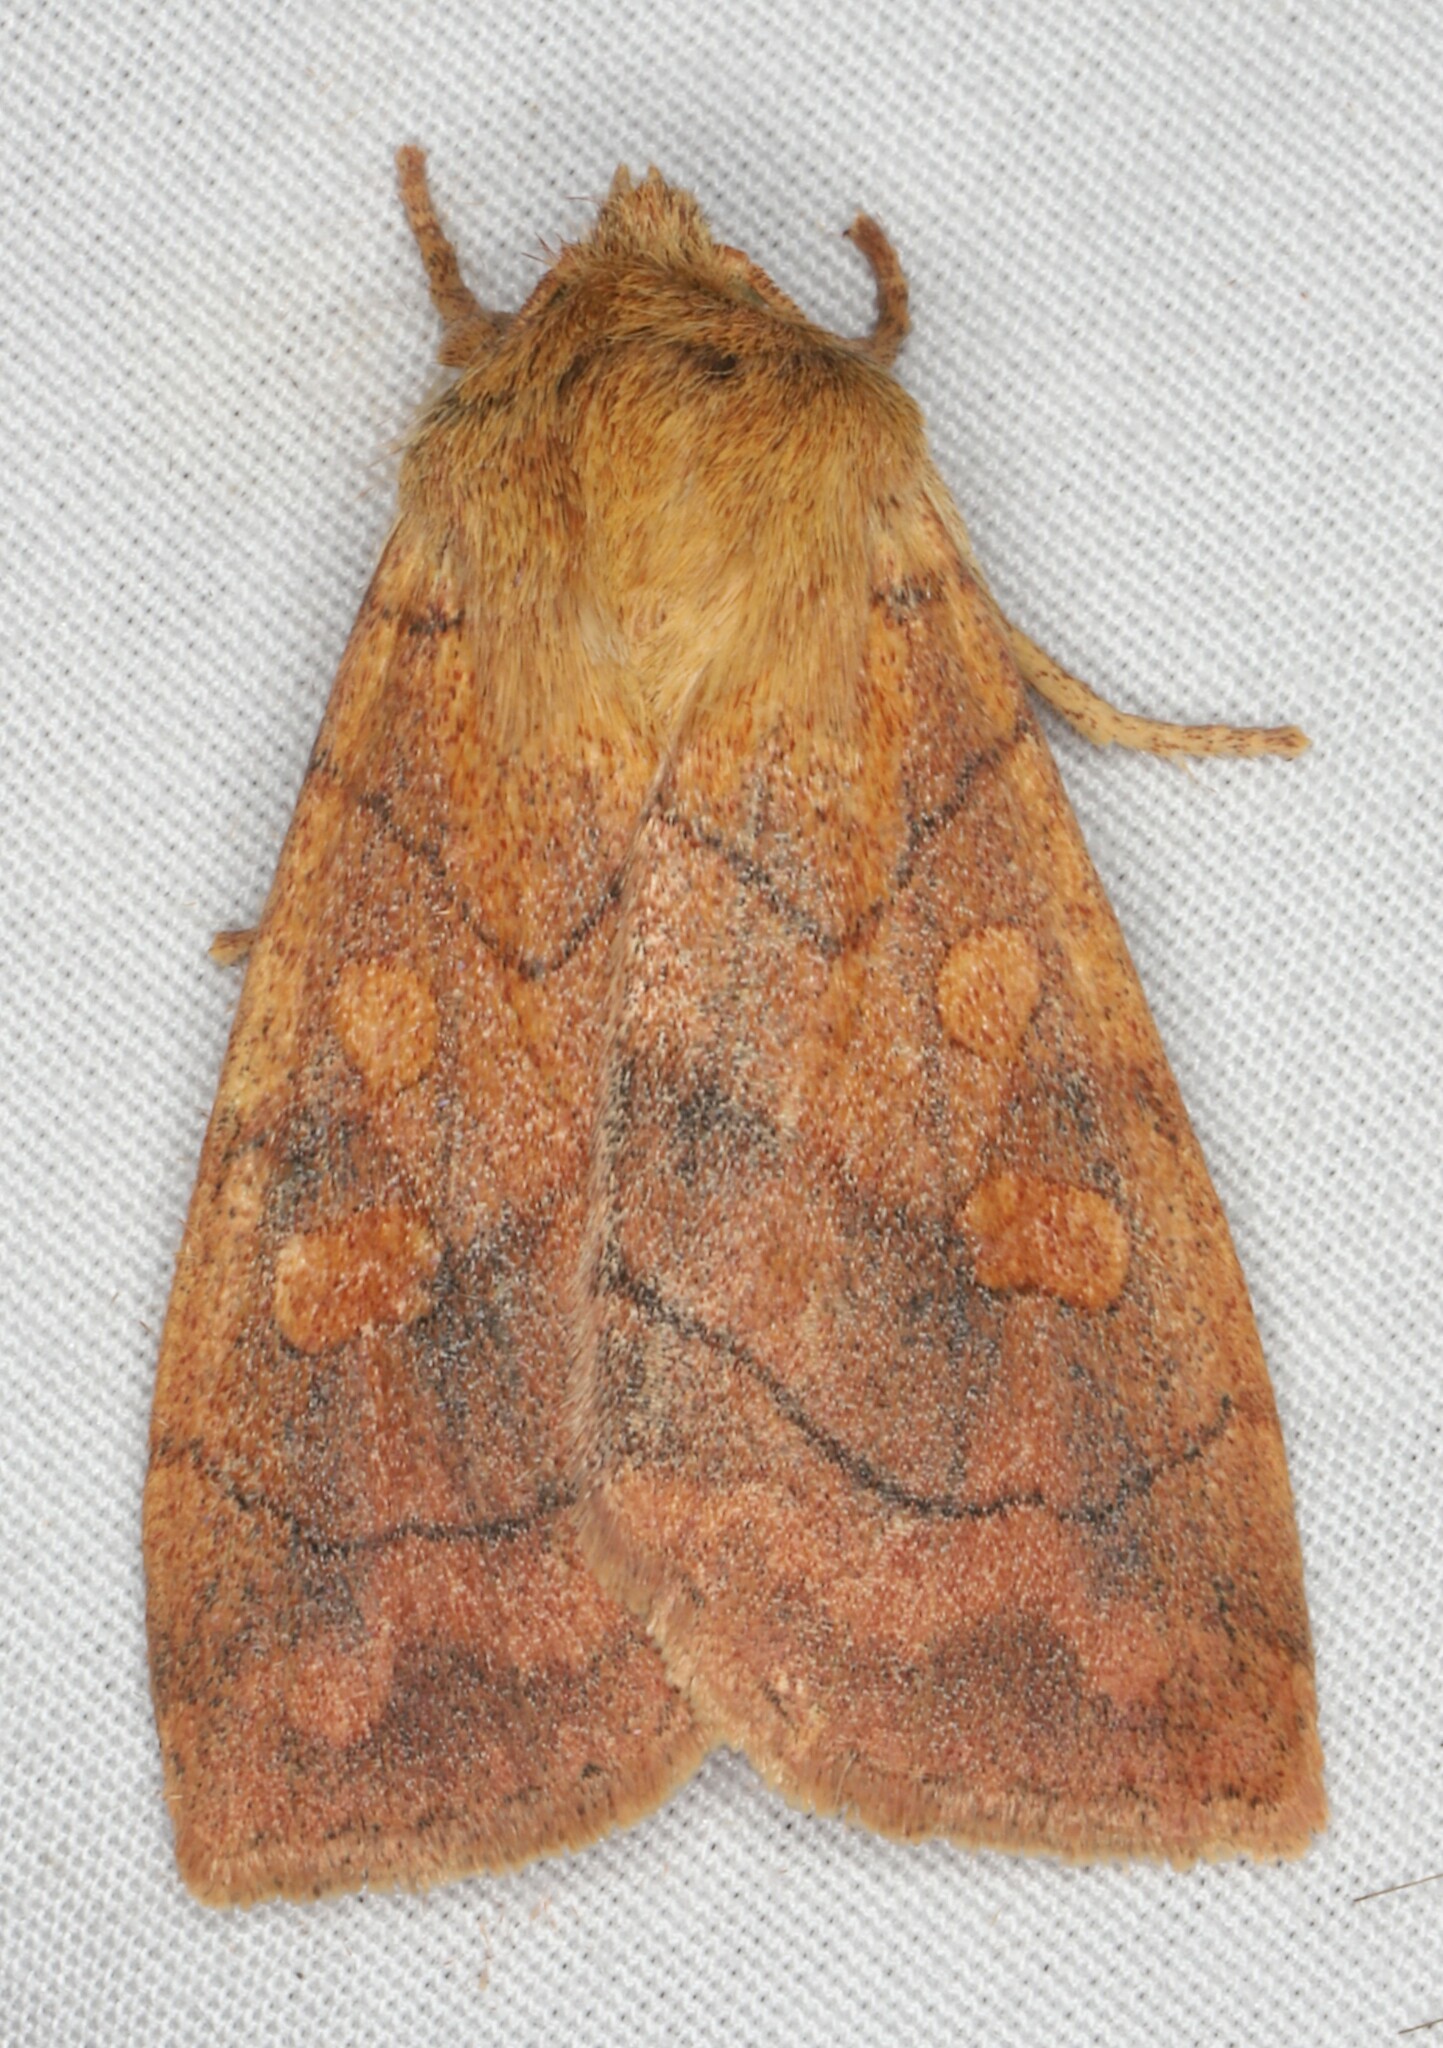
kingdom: Animalia
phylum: Arthropoda
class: Insecta
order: Lepidoptera
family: Noctuidae
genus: Enargia
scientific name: Enargia decolor
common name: Aspen twoleaf tier moth
